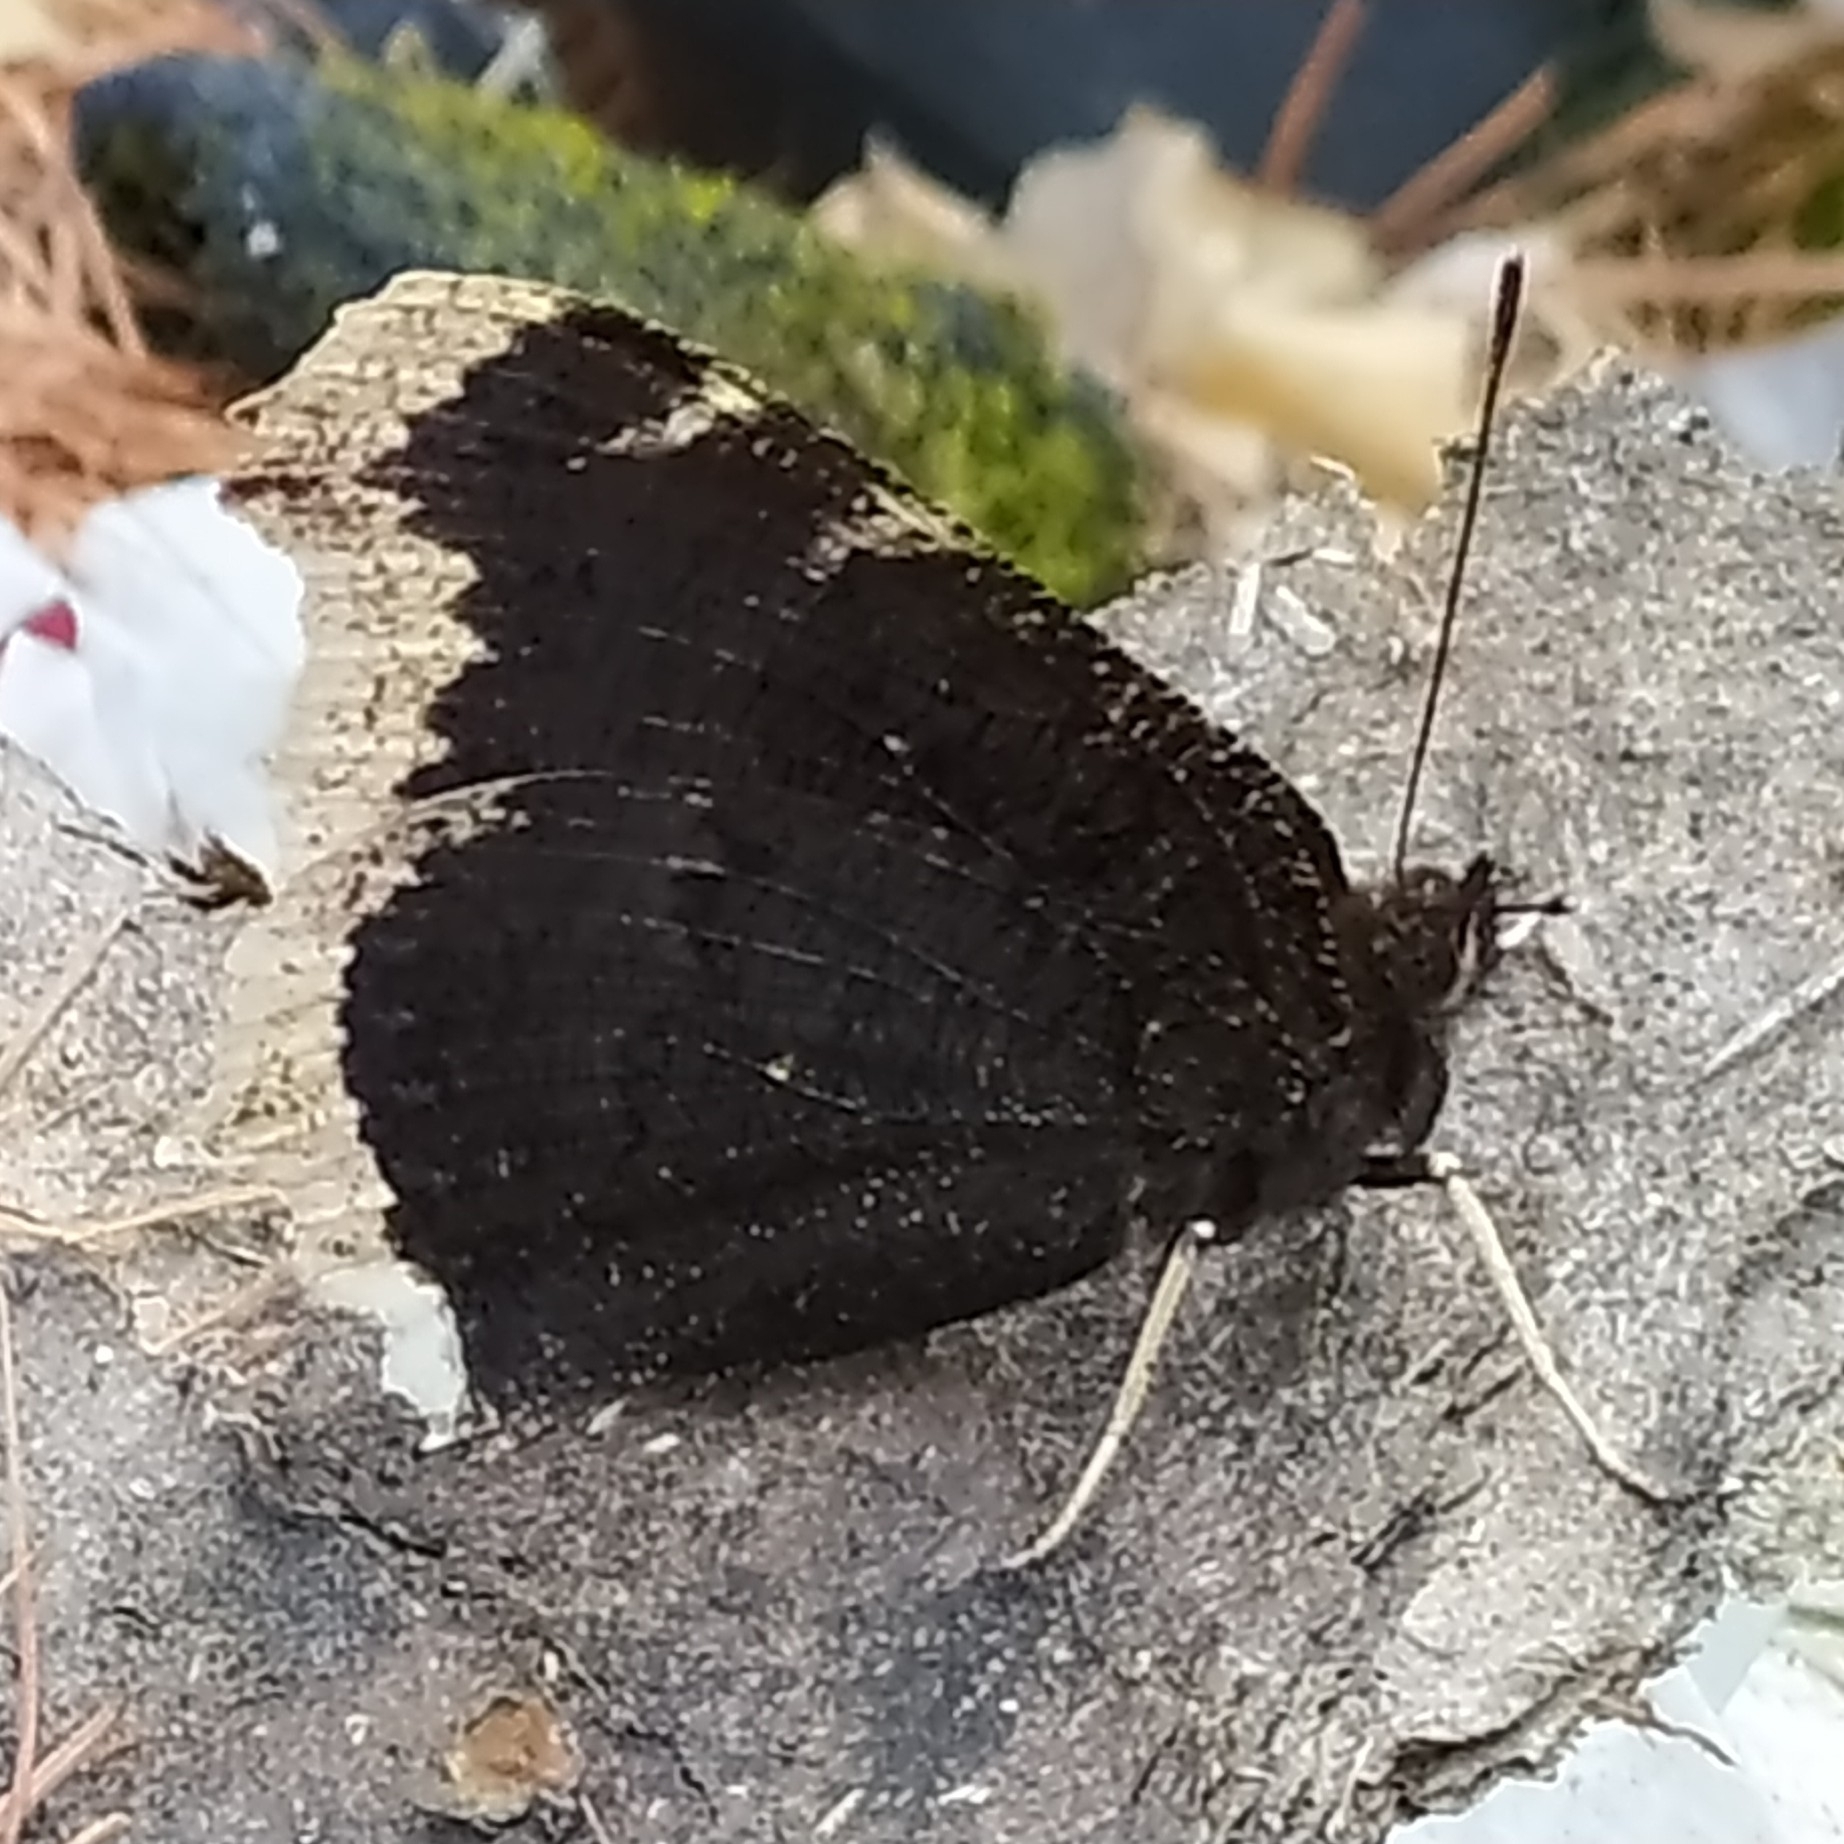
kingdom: Animalia
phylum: Arthropoda
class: Insecta
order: Lepidoptera
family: Nymphalidae
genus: Nymphalis
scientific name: Nymphalis antiopa
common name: Camberwell beauty
